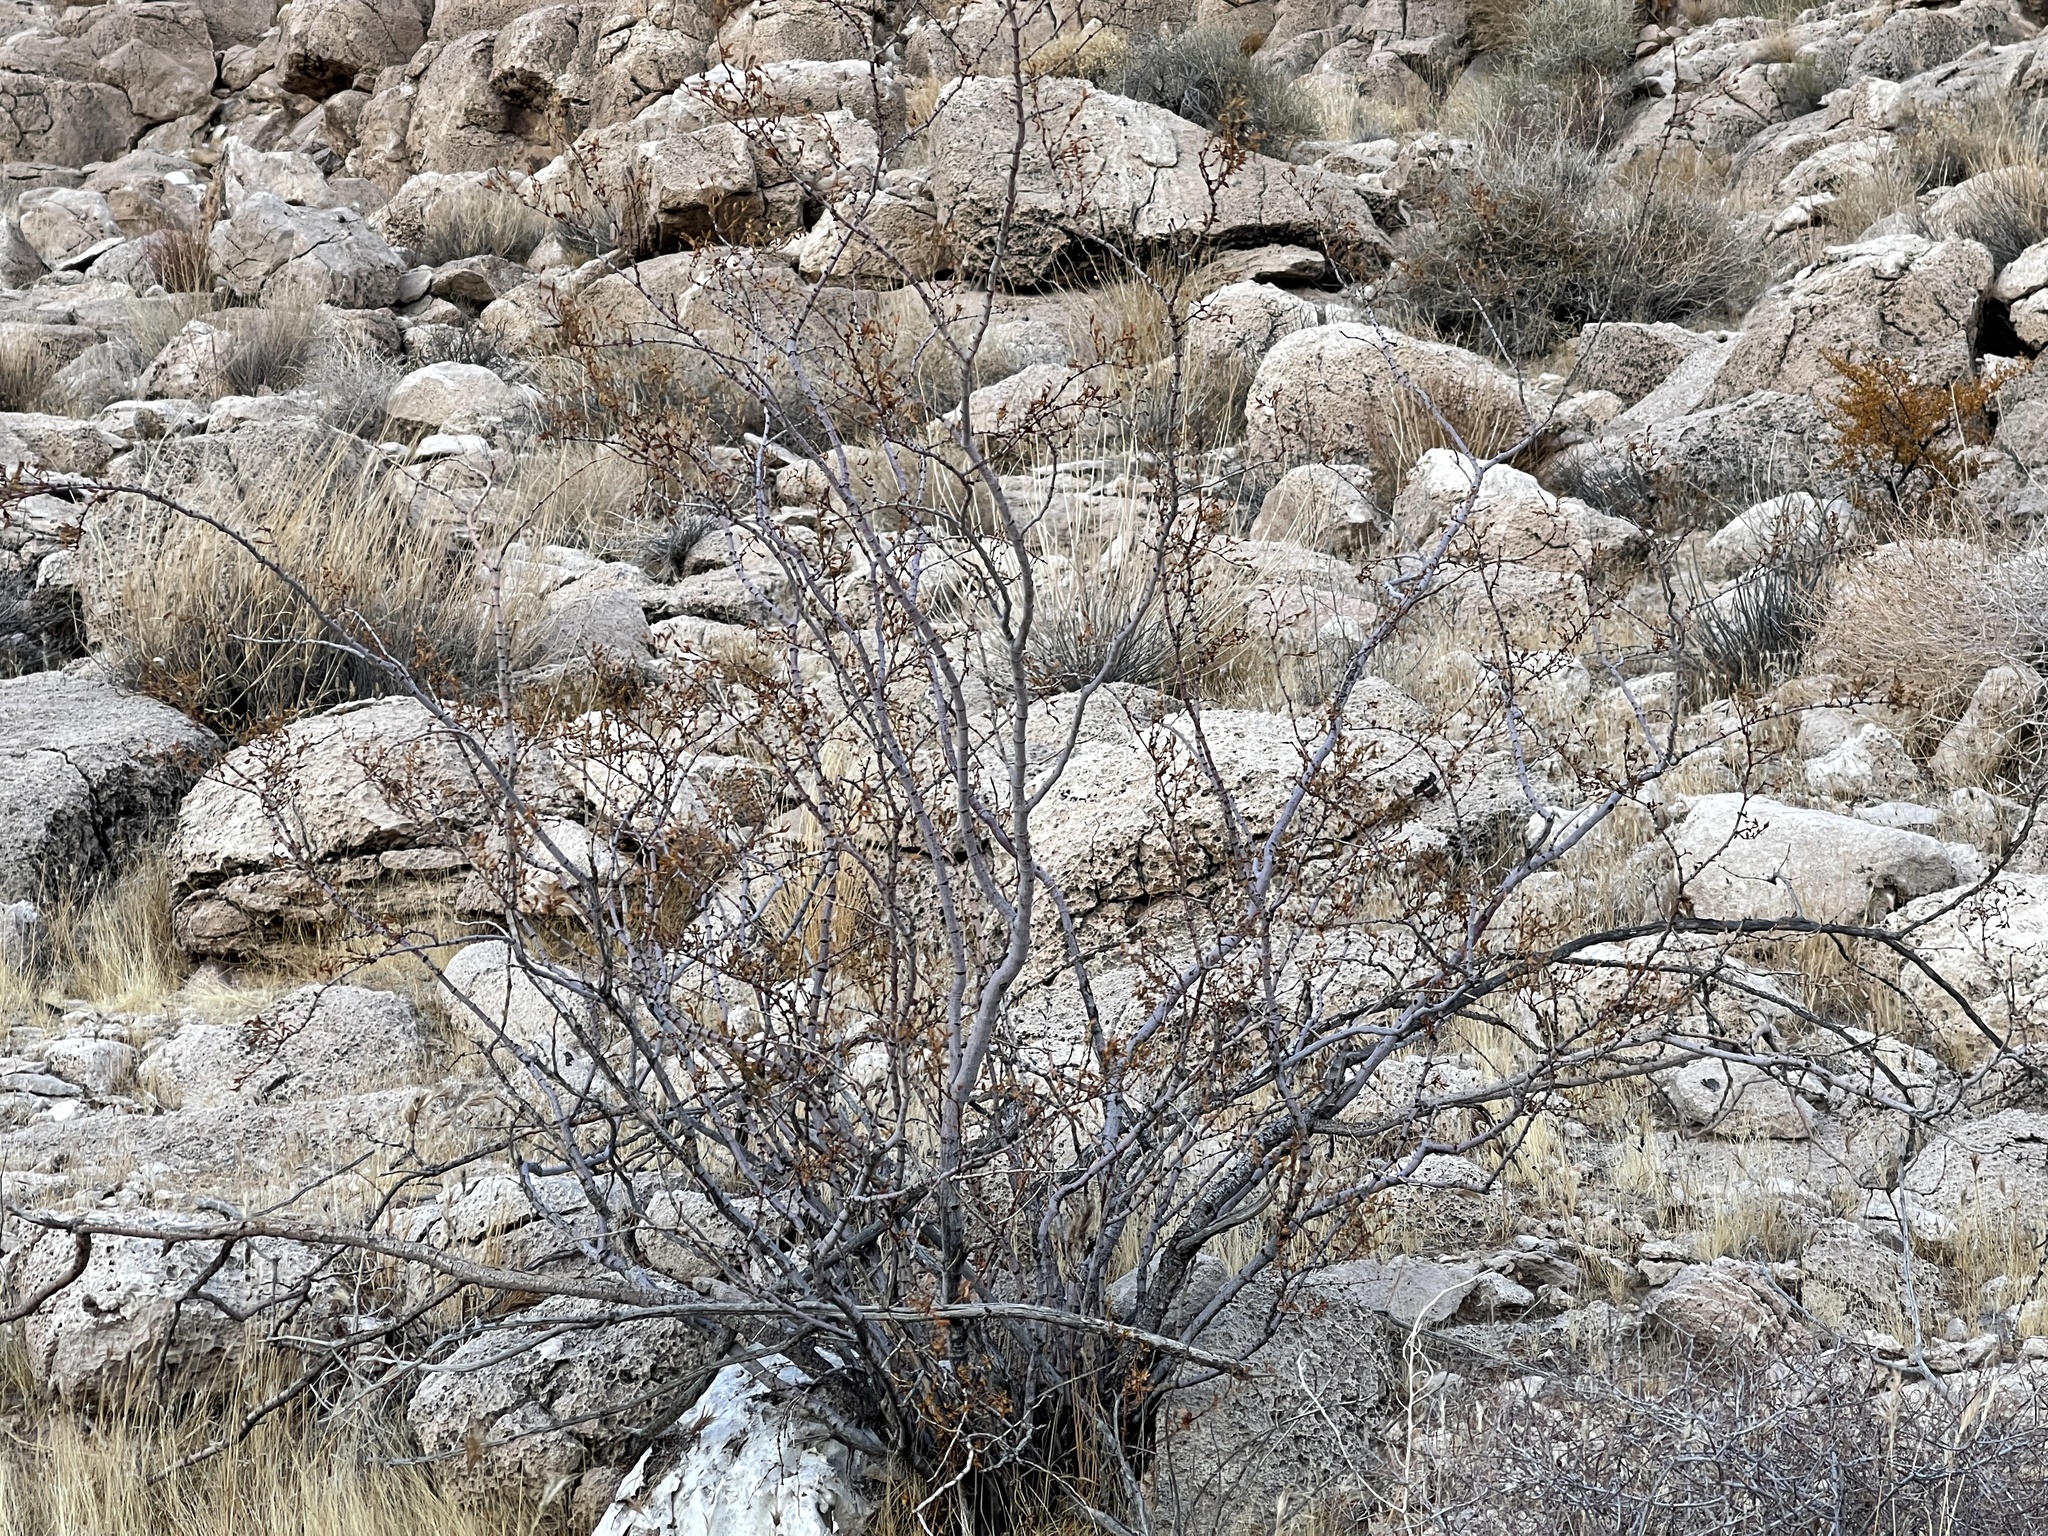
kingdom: Plantae
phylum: Tracheophyta
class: Magnoliopsida
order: Zygophyllales
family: Zygophyllaceae
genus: Larrea
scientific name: Larrea tridentata
